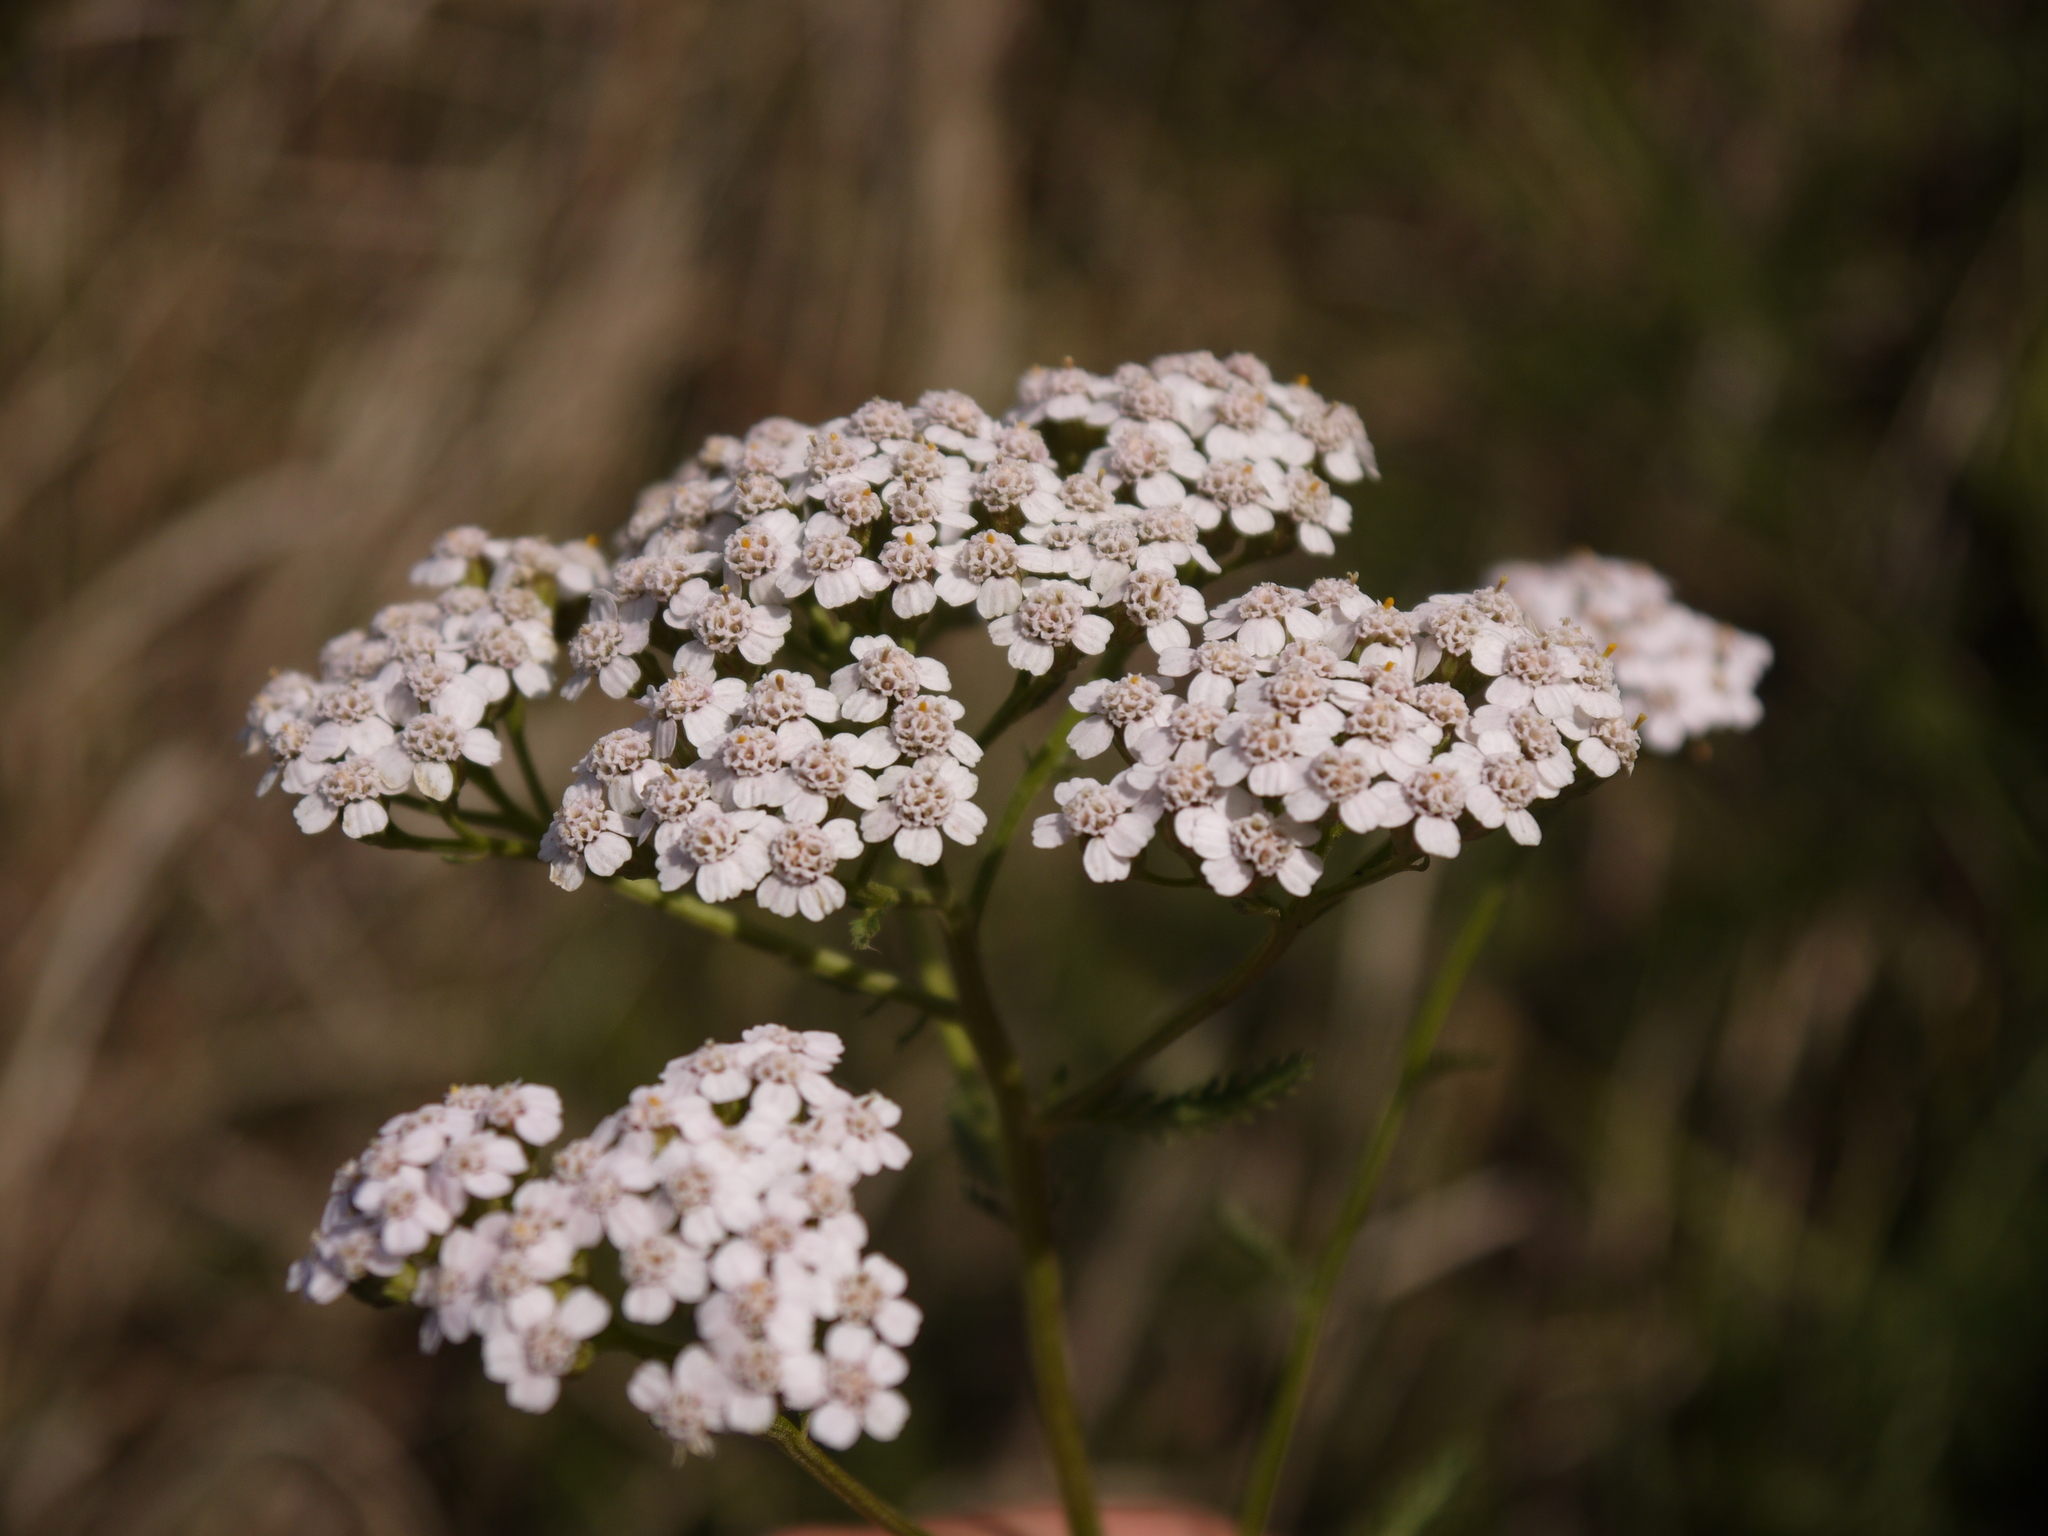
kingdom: Plantae
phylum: Tracheophyta
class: Magnoliopsida
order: Asterales
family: Asteraceae
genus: Achillea
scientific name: Achillea millefolium
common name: Yarrow
